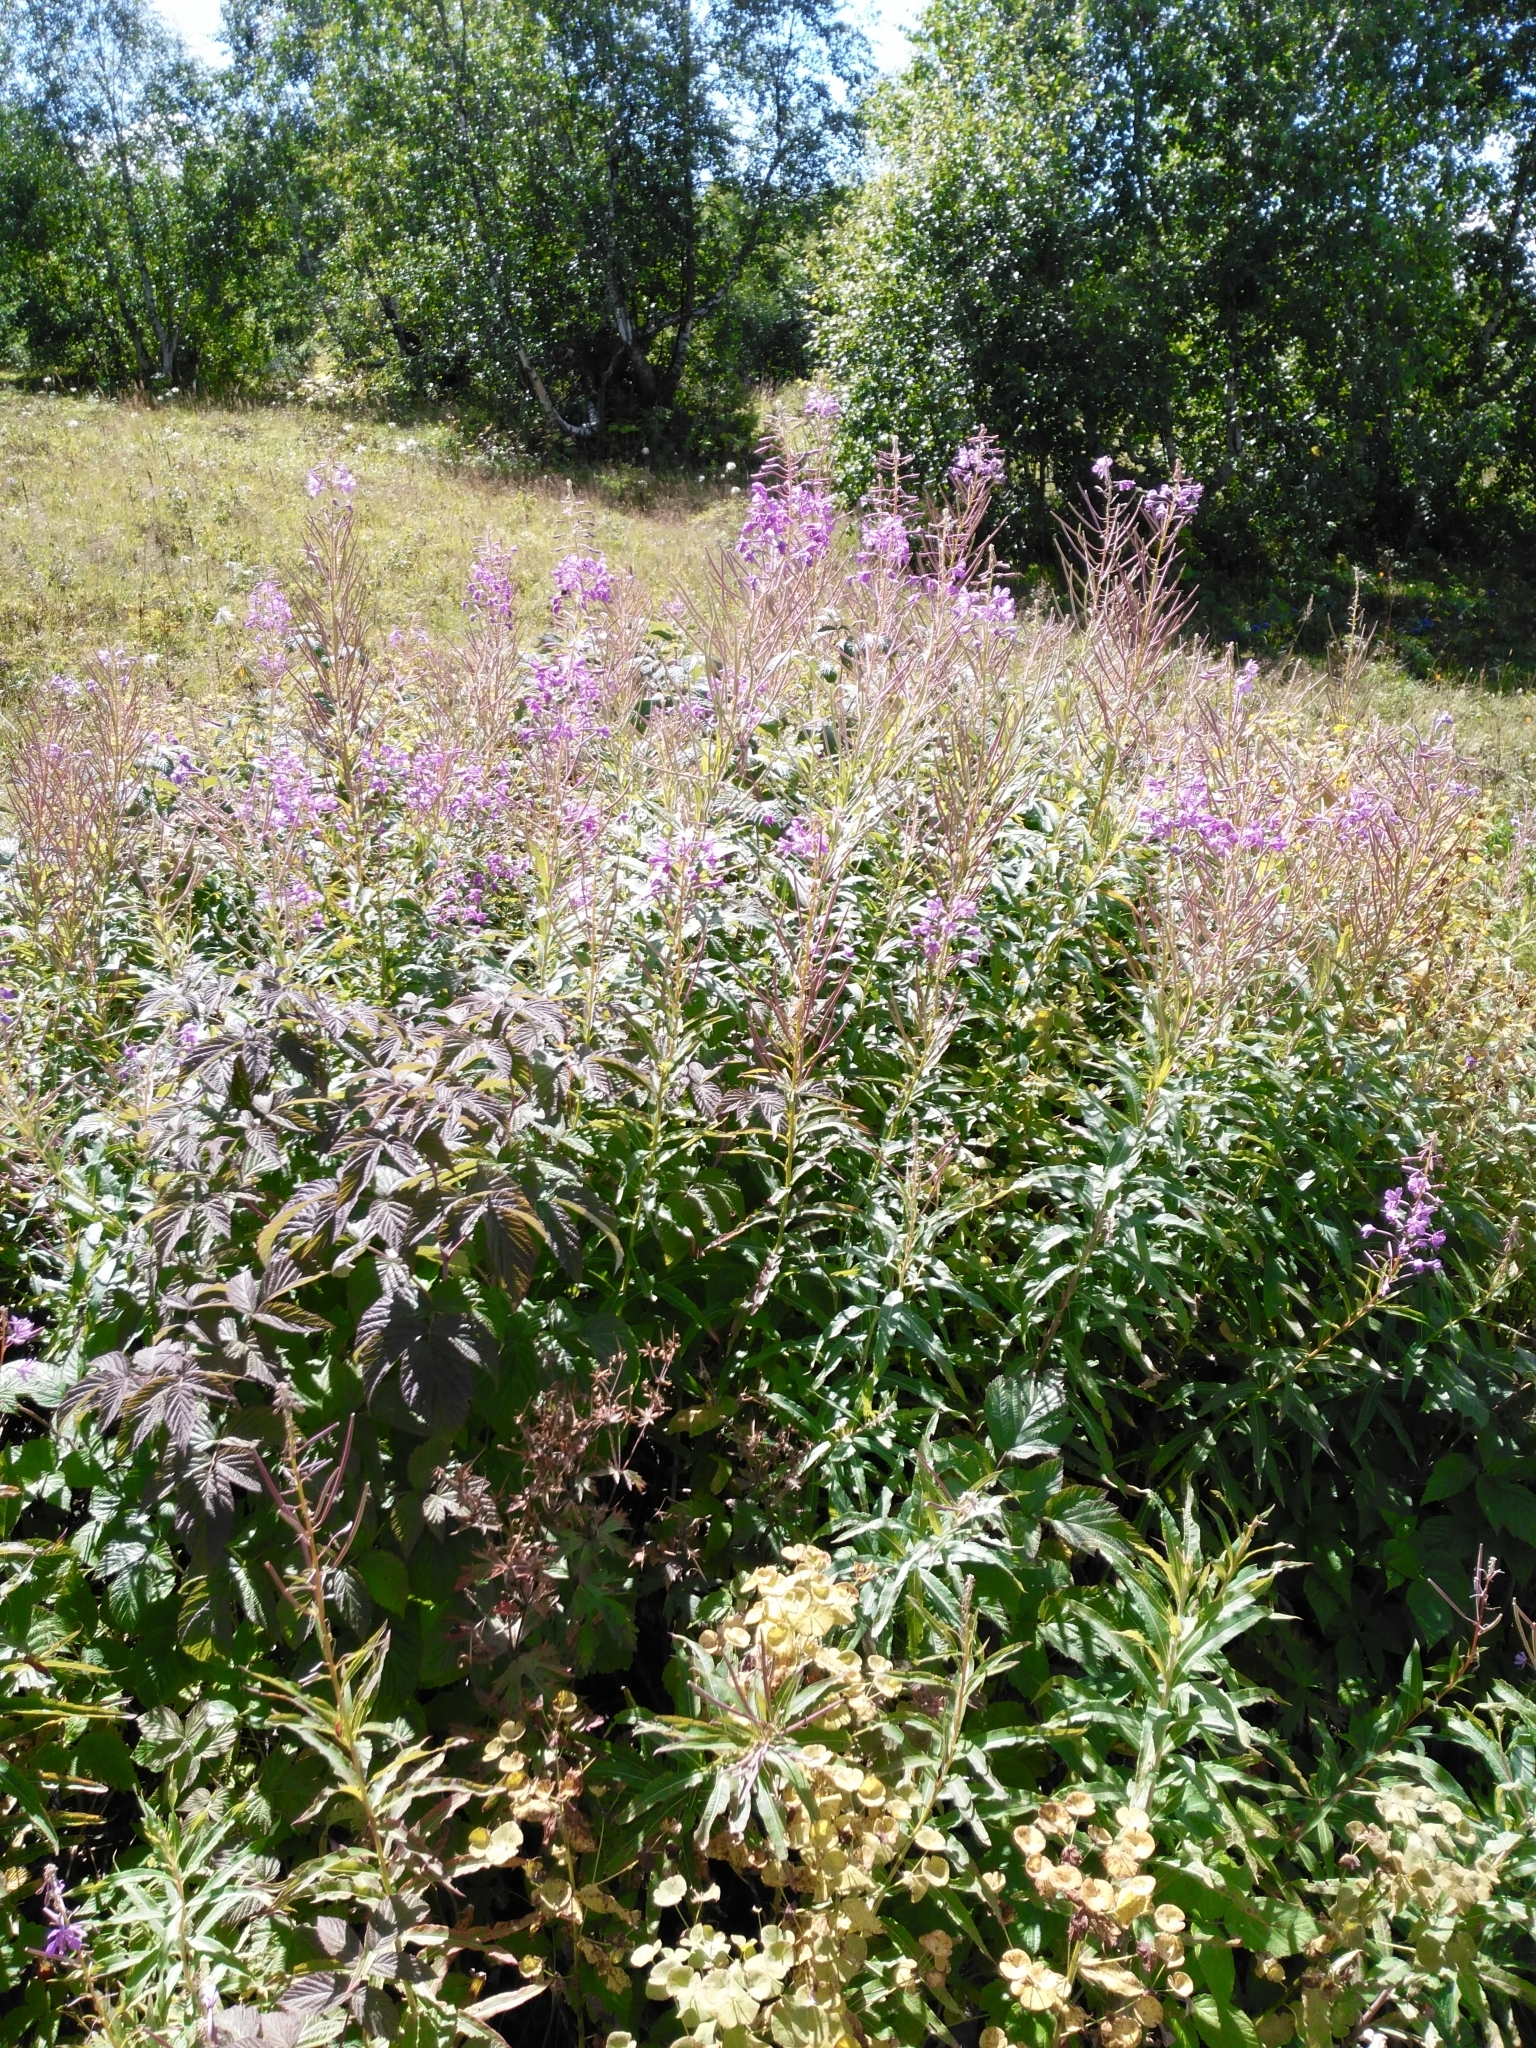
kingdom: Plantae
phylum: Tracheophyta
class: Magnoliopsida
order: Myrtales
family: Onagraceae
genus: Chamaenerion
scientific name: Chamaenerion angustifolium
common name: Fireweed
